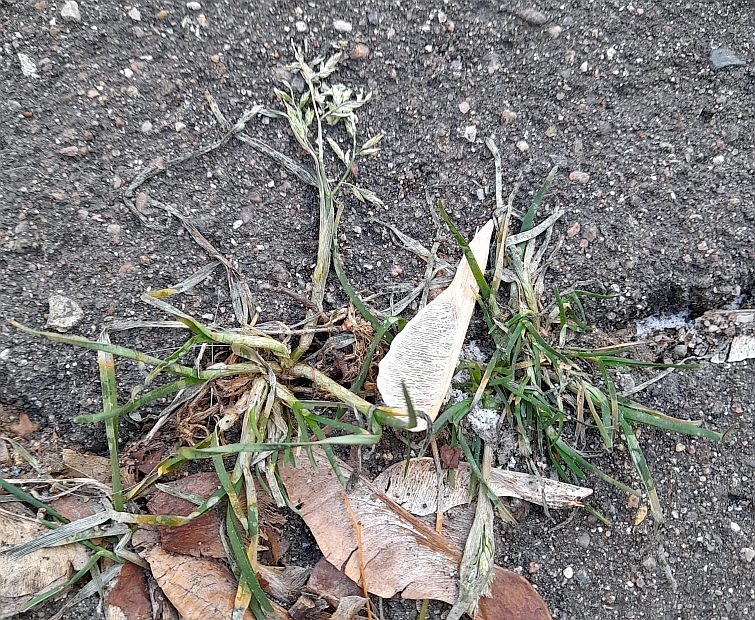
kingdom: Plantae
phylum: Tracheophyta
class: Liliopsida
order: Poales
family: Poaceae
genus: Poa
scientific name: Poa annua
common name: Annual bluegrass
